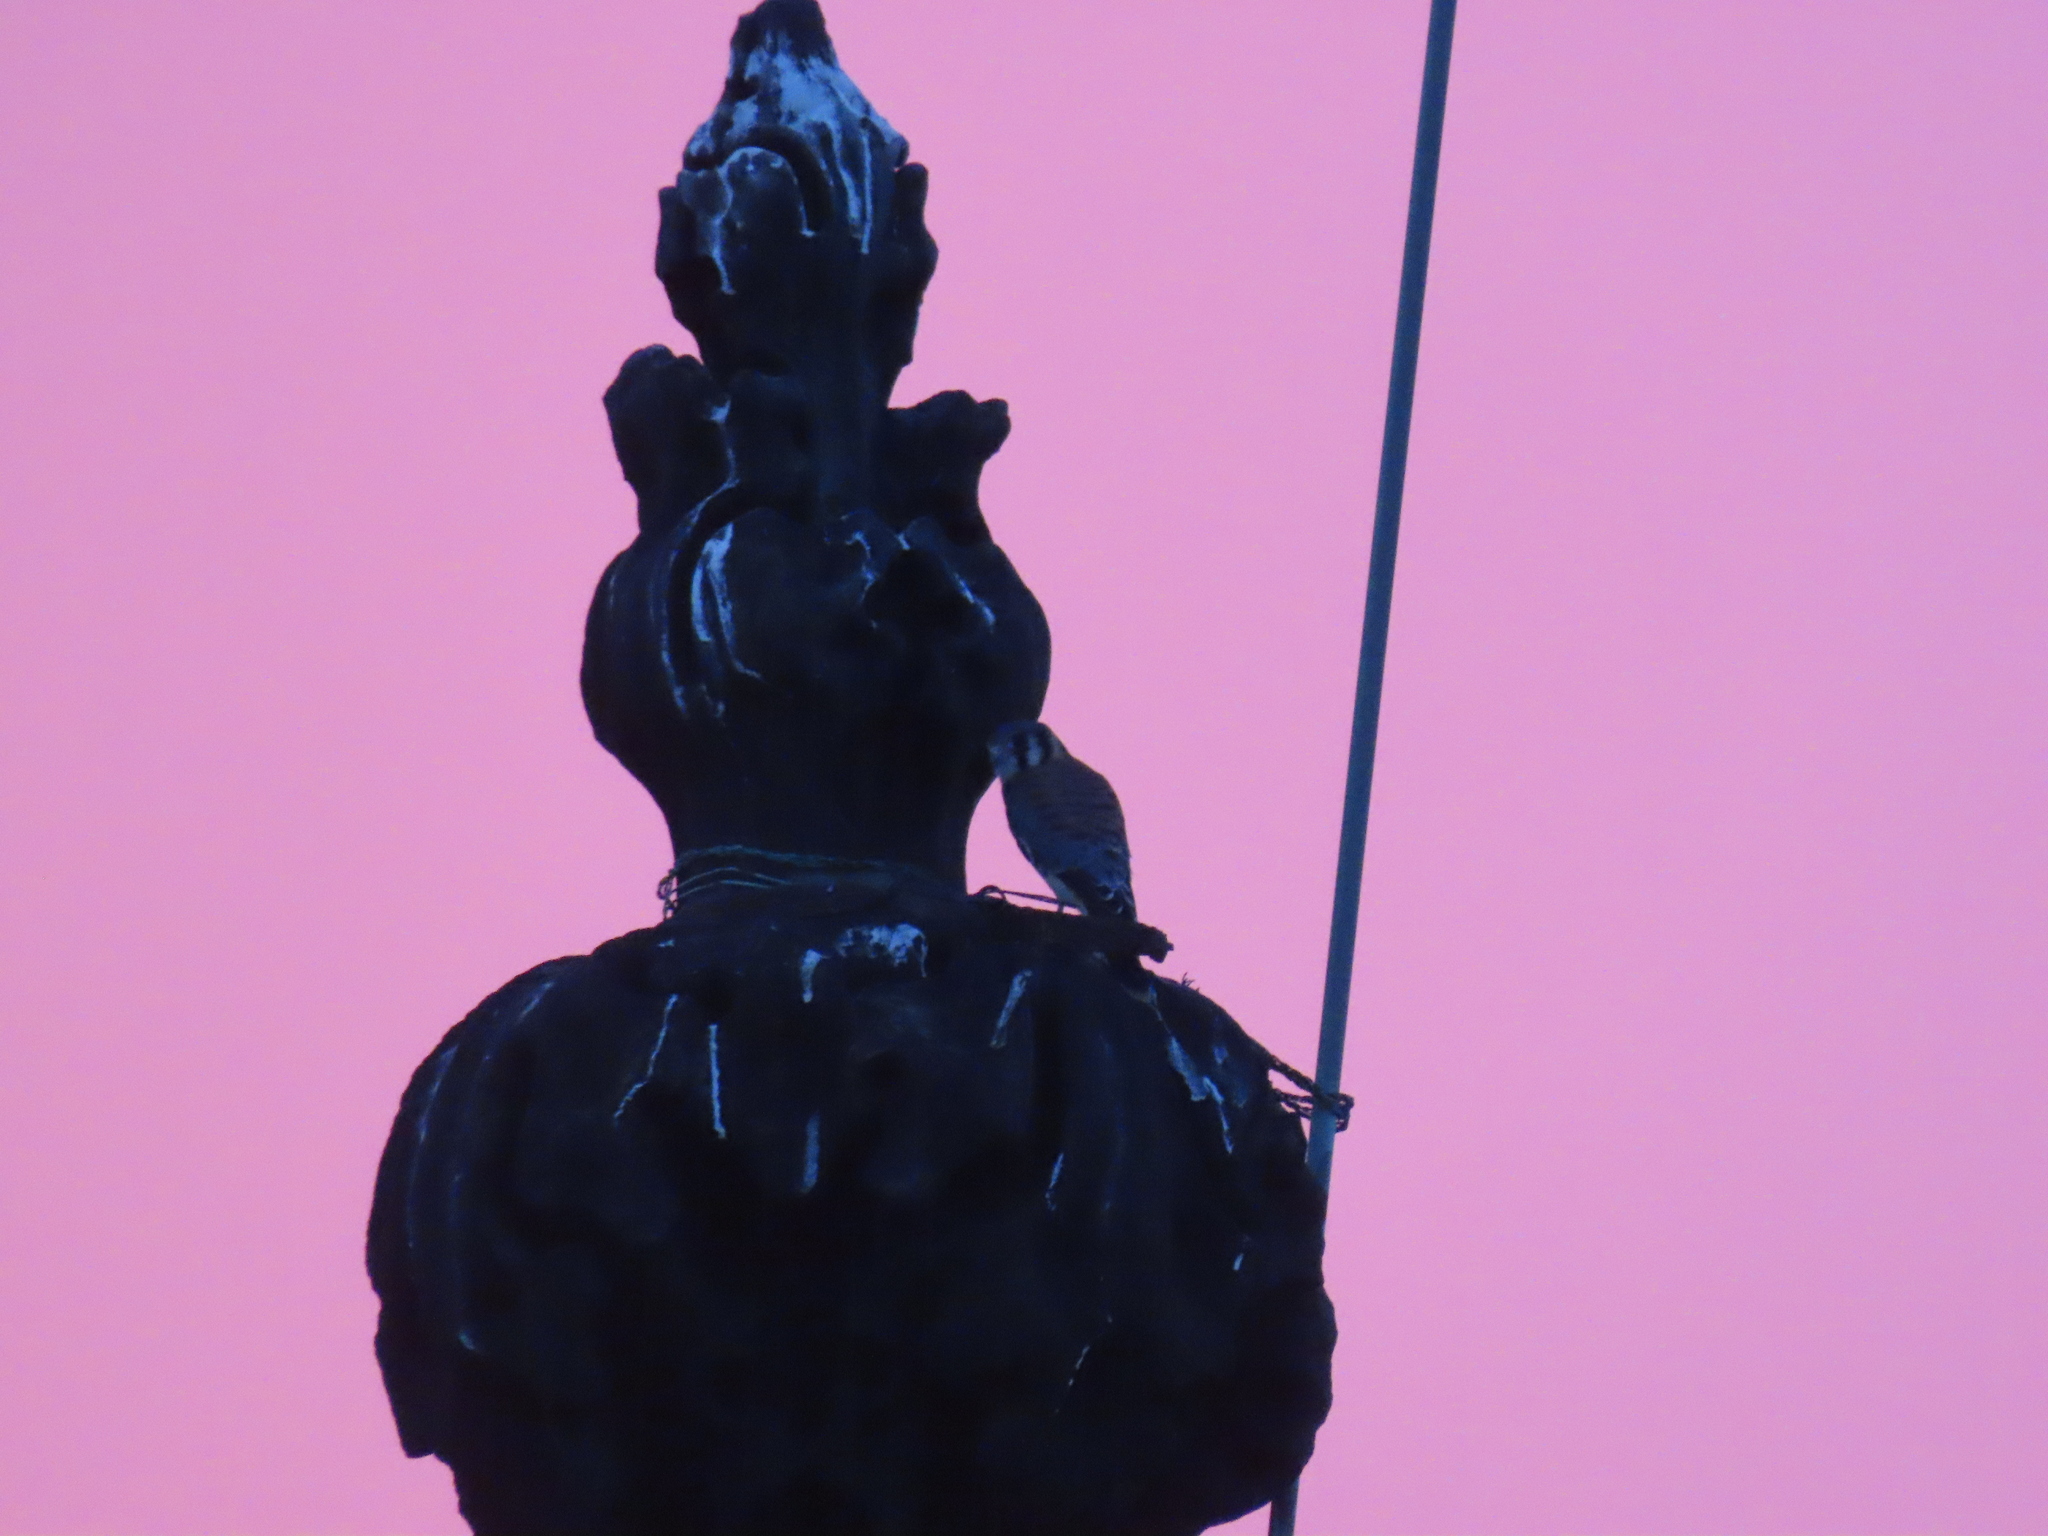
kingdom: Animalia
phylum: Chordata
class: Aves
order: Falconiformes
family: Falconidae
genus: Falco
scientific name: Falco sparverius
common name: American kestrel
